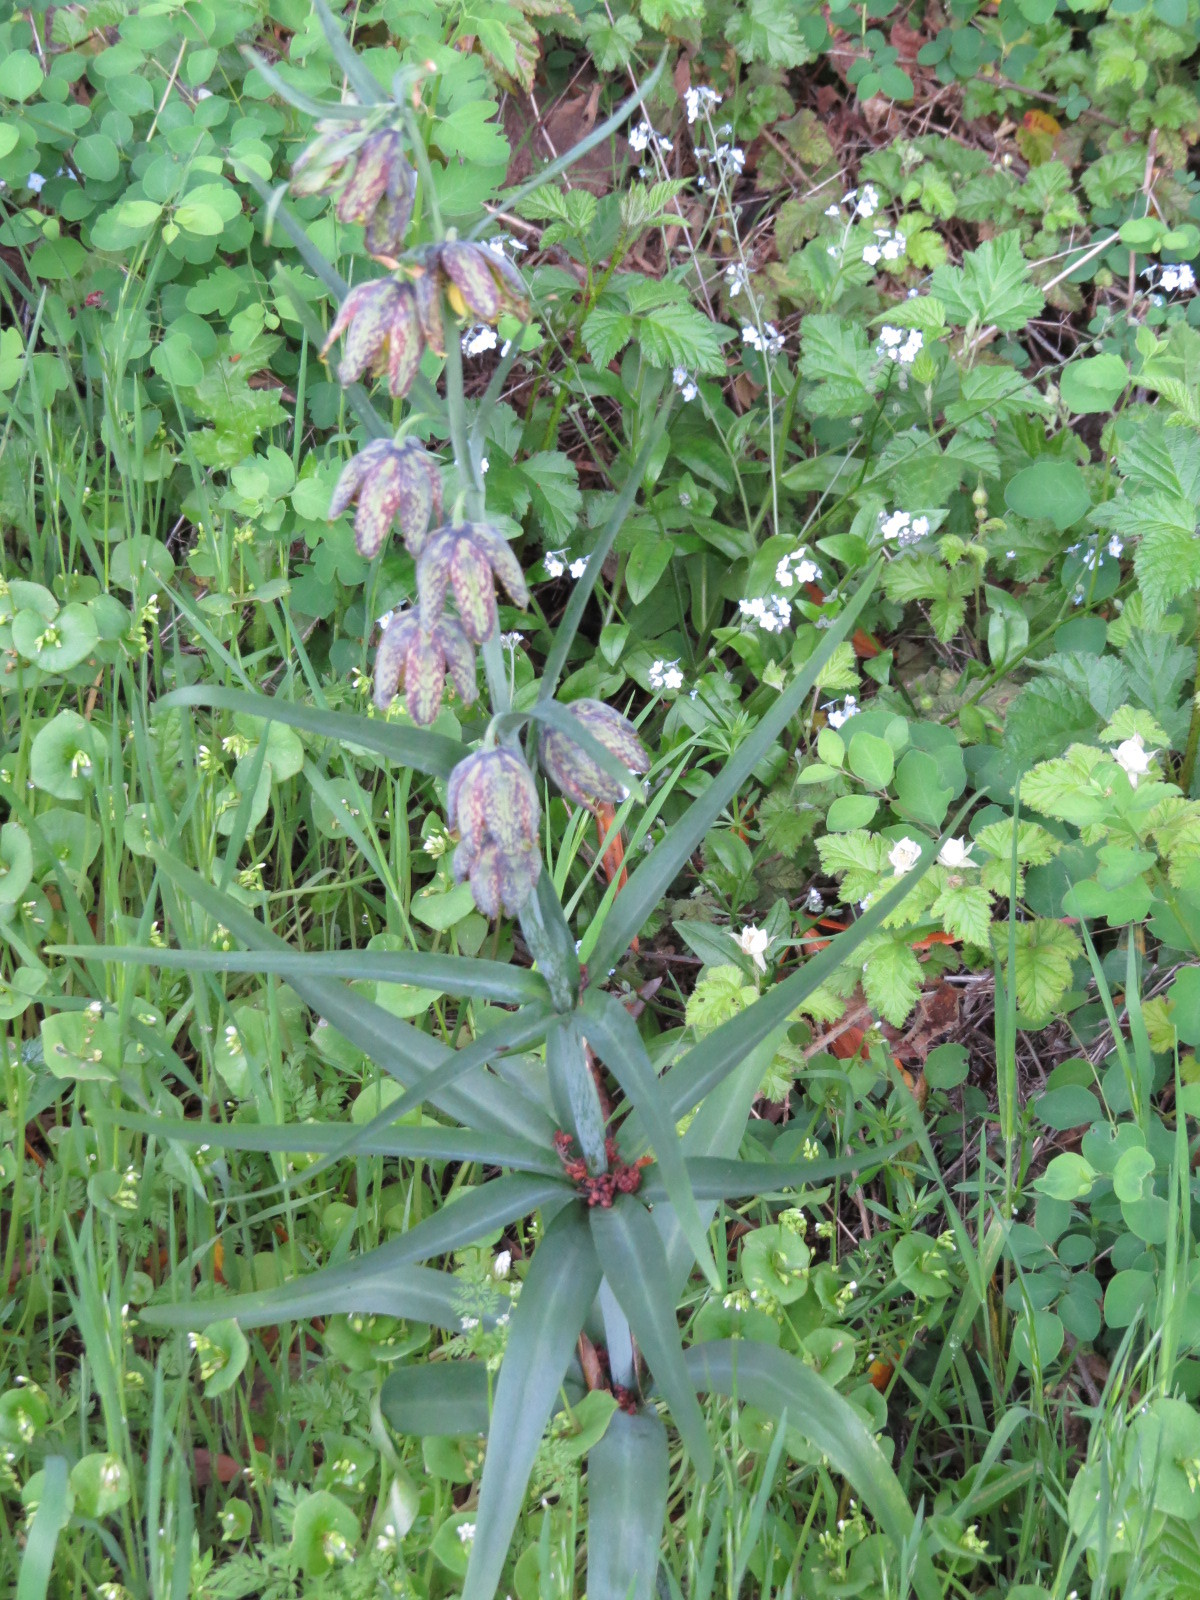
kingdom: Plantae
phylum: Tracheophyta
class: Liliopsida
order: Liliales
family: Liliaceae
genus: Fritillaria
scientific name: Fritillaria affinis
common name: Ojai fritillary
